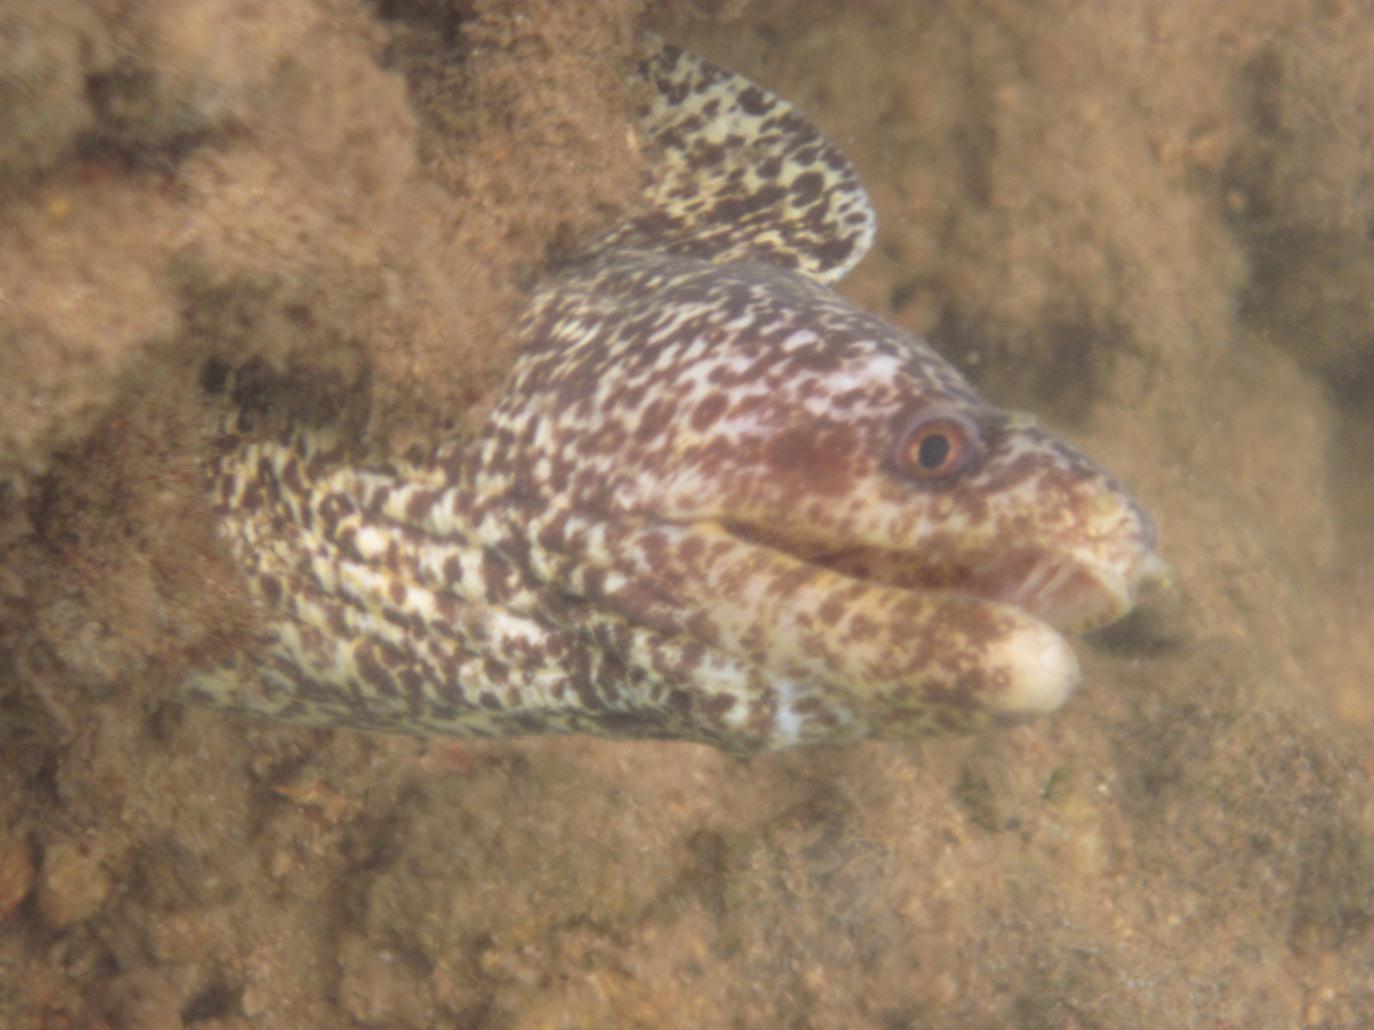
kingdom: Animalia
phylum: Chordata
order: Anguilliformes
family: Muraenidae
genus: Gymnothorax
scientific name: Gymnothorax undulatus
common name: Leopard moray
